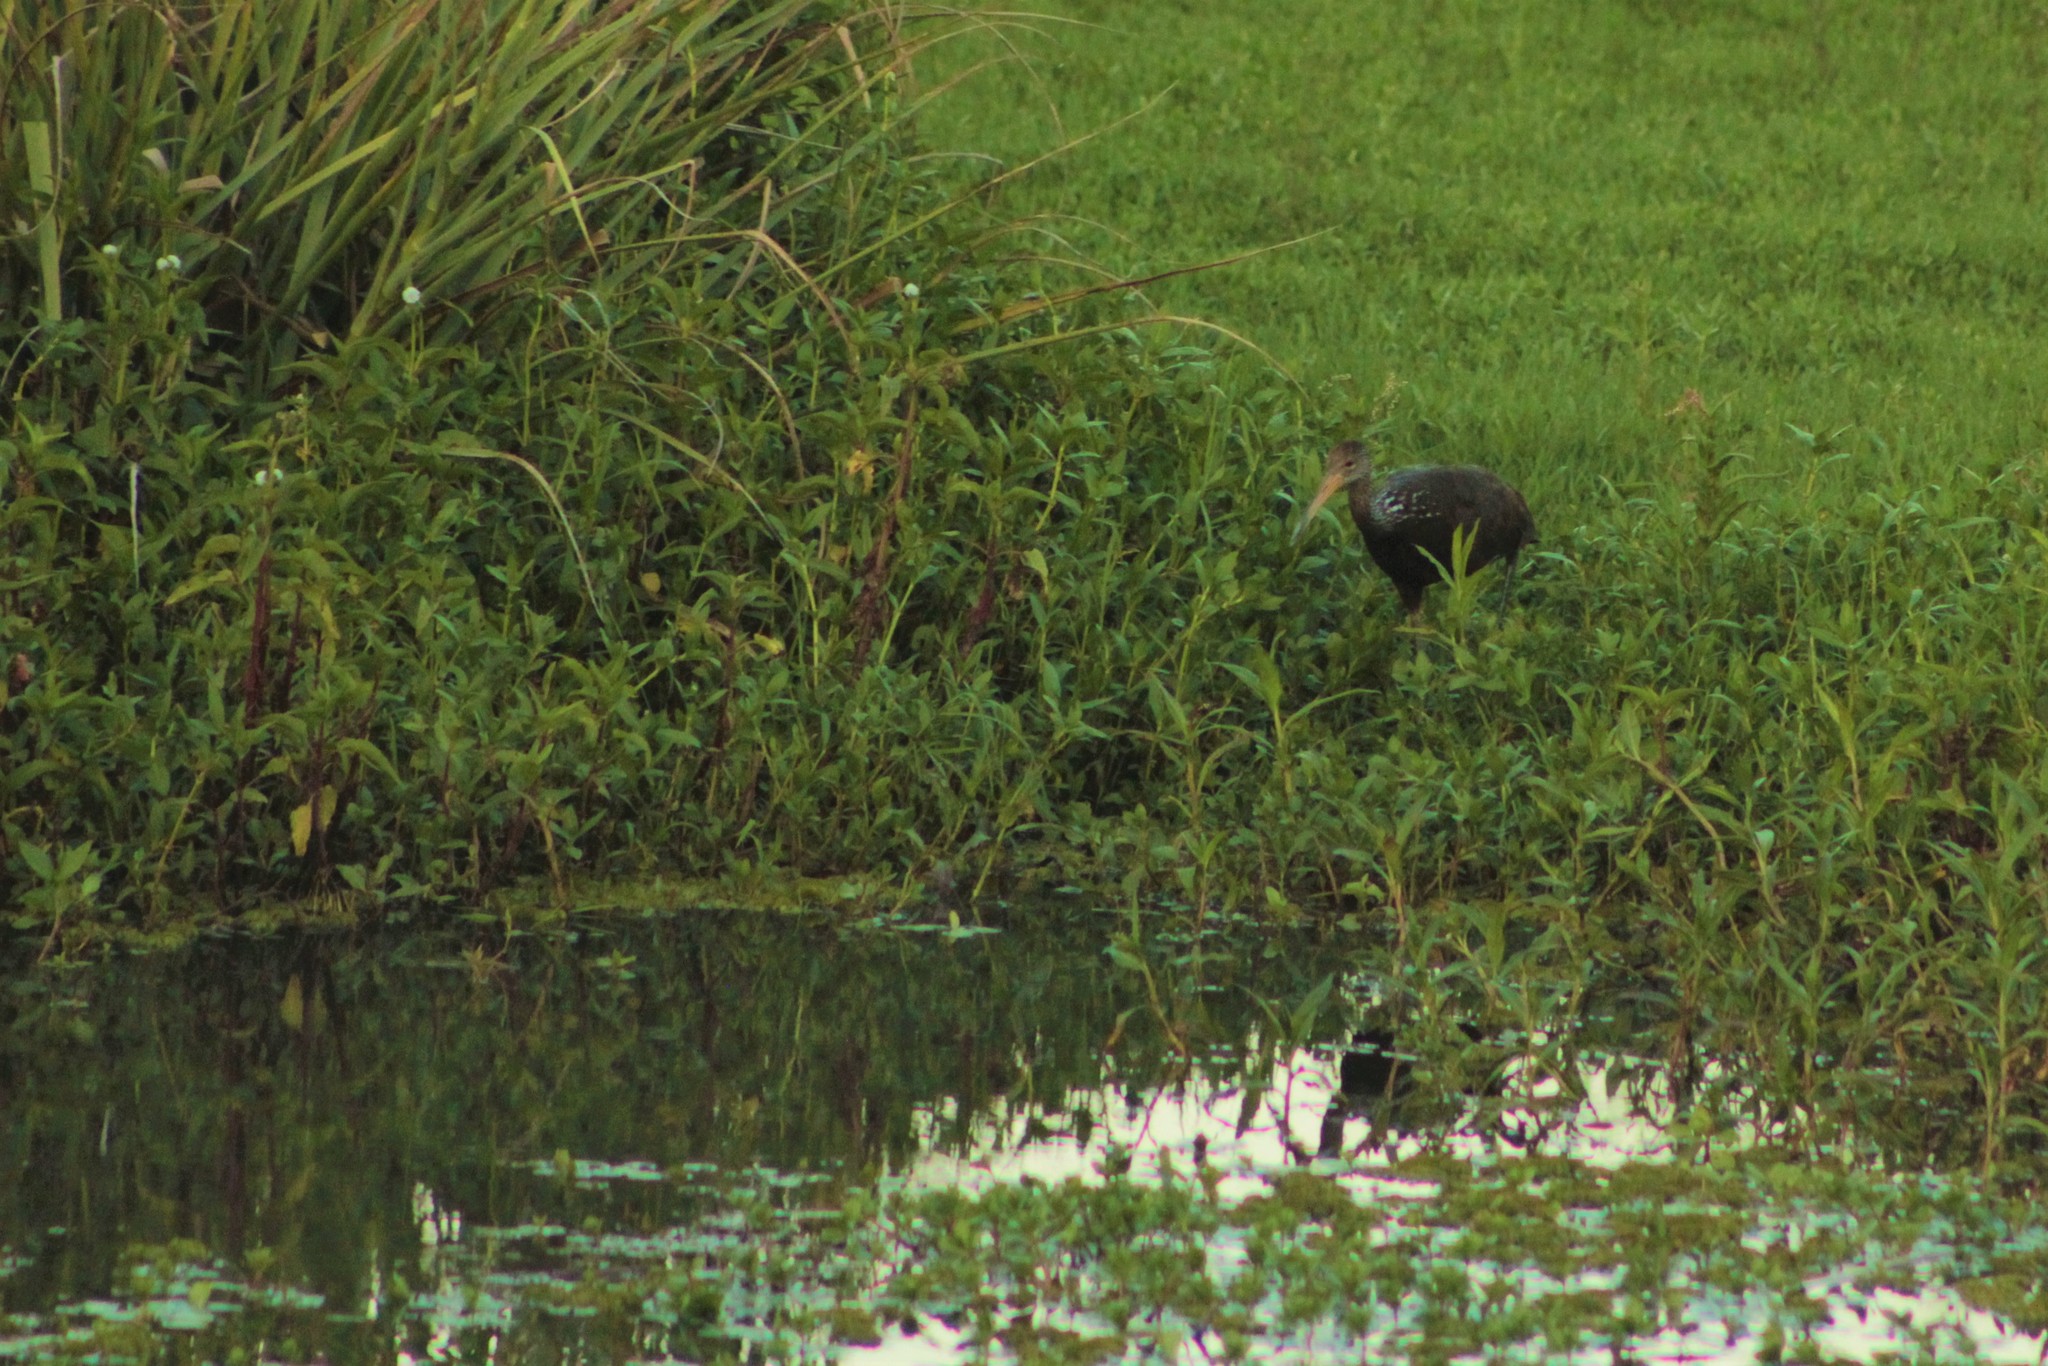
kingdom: Animalia
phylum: Chordata
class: Aves
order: Gruiformes
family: Aramidae
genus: Aramus
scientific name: Aramus guarauna
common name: Limpkin
